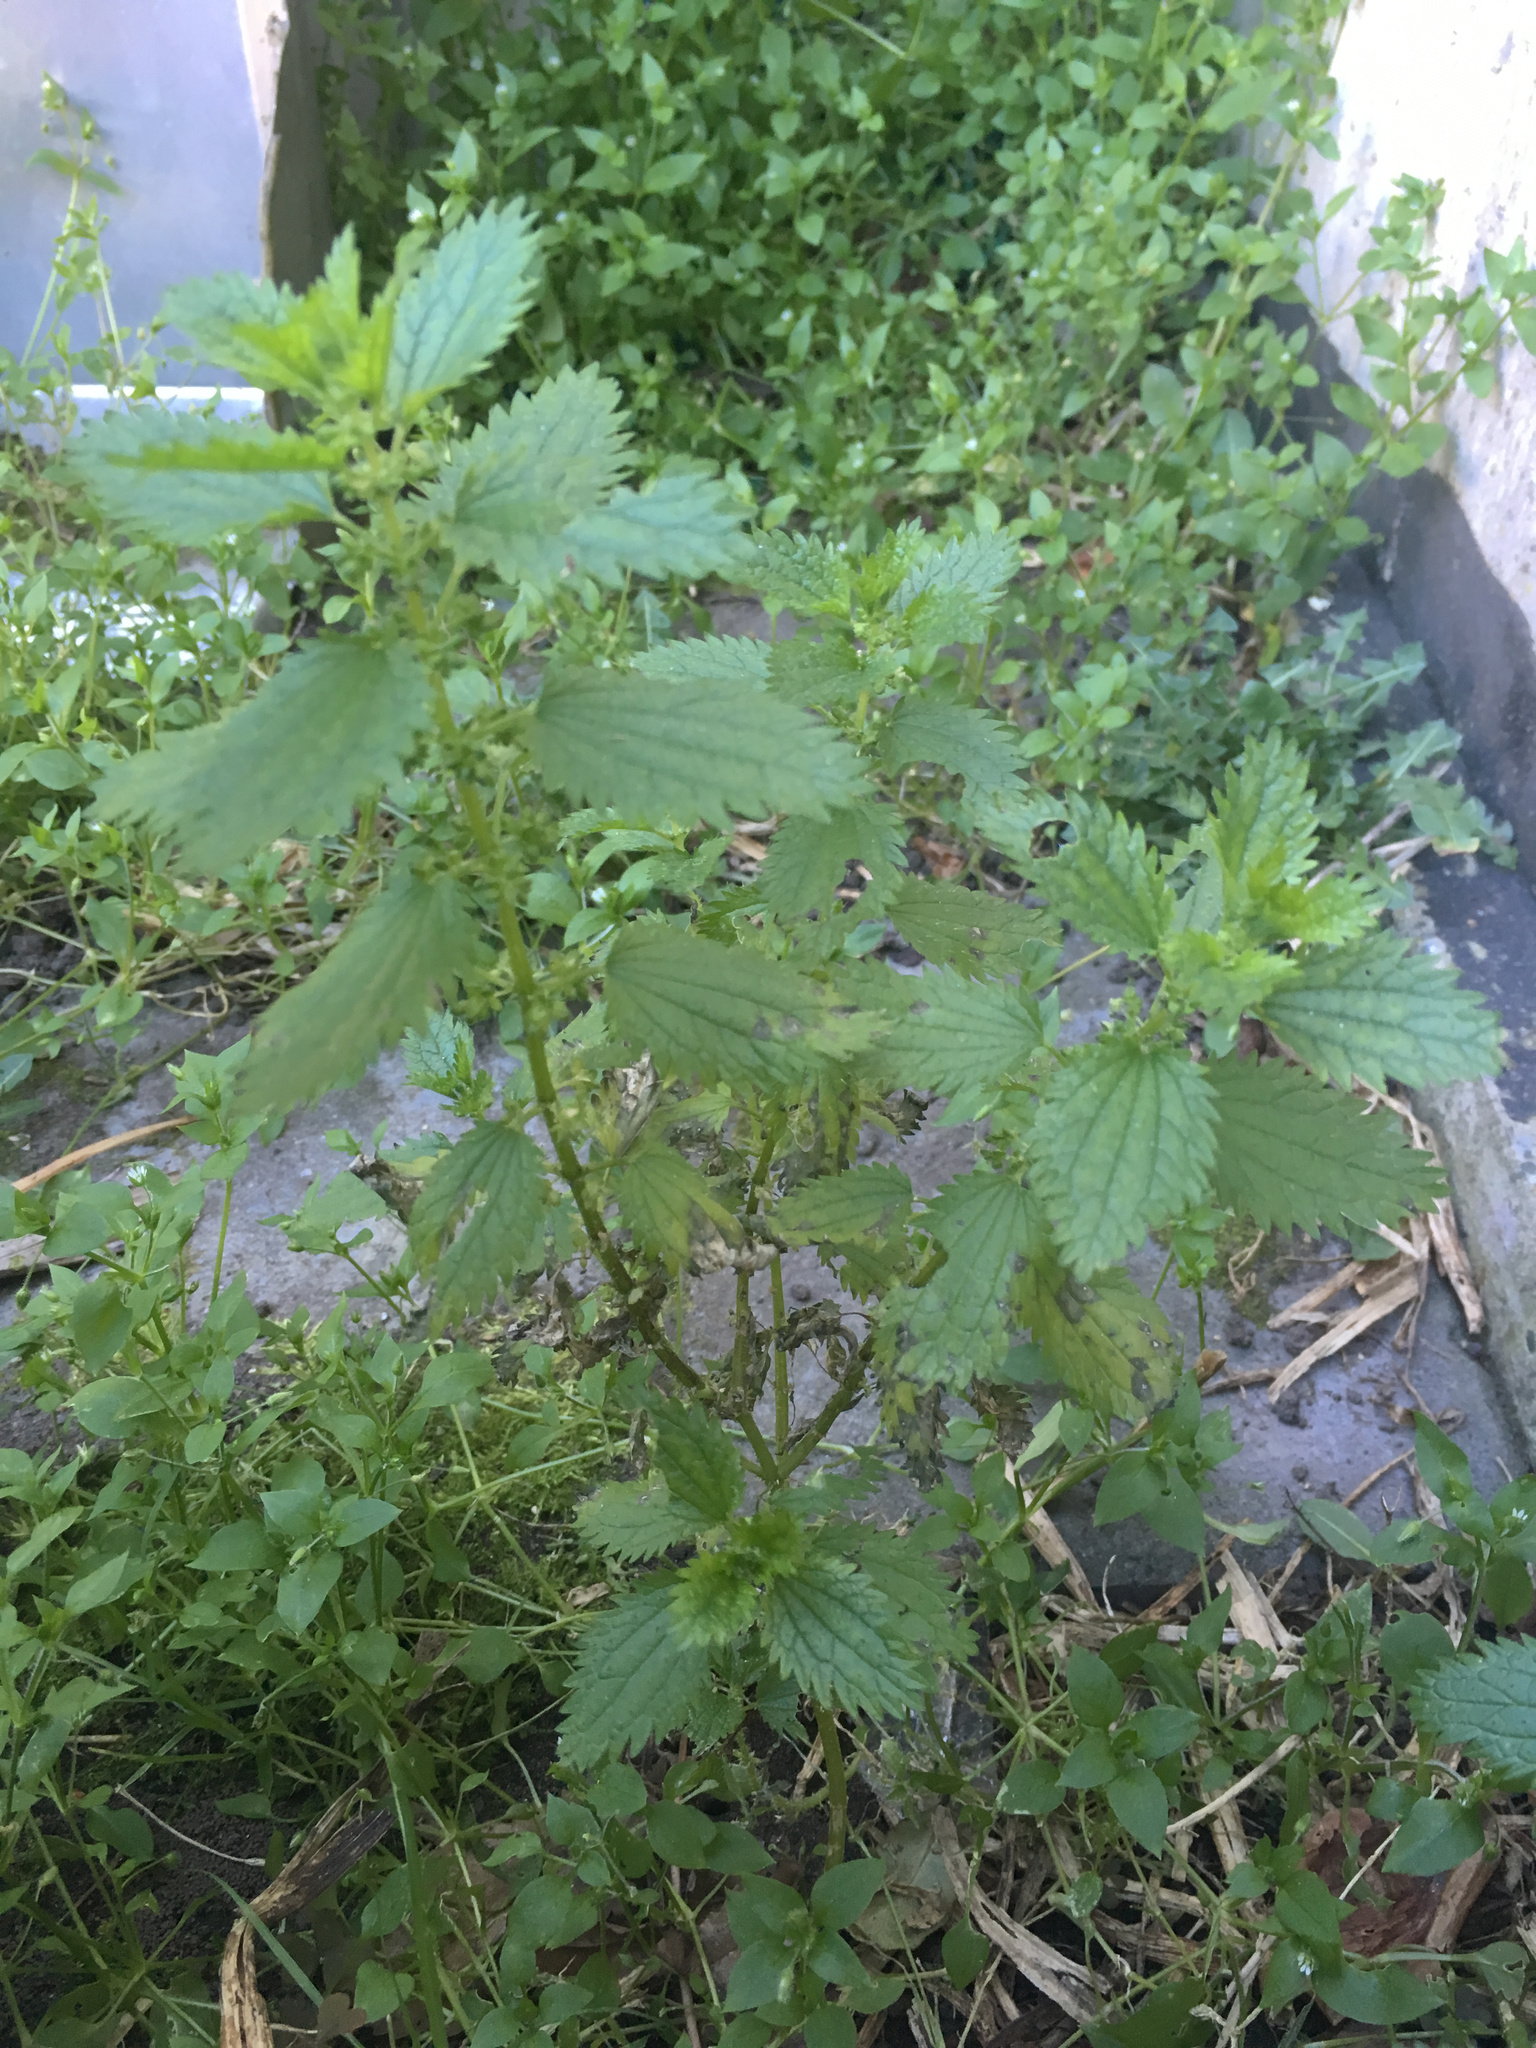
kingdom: Plantae
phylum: Tracheophyta
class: Magnoliopsida
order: Rosales
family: Urticaceae
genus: Urtica
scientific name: Urtica urens
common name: Dwarf nettle
